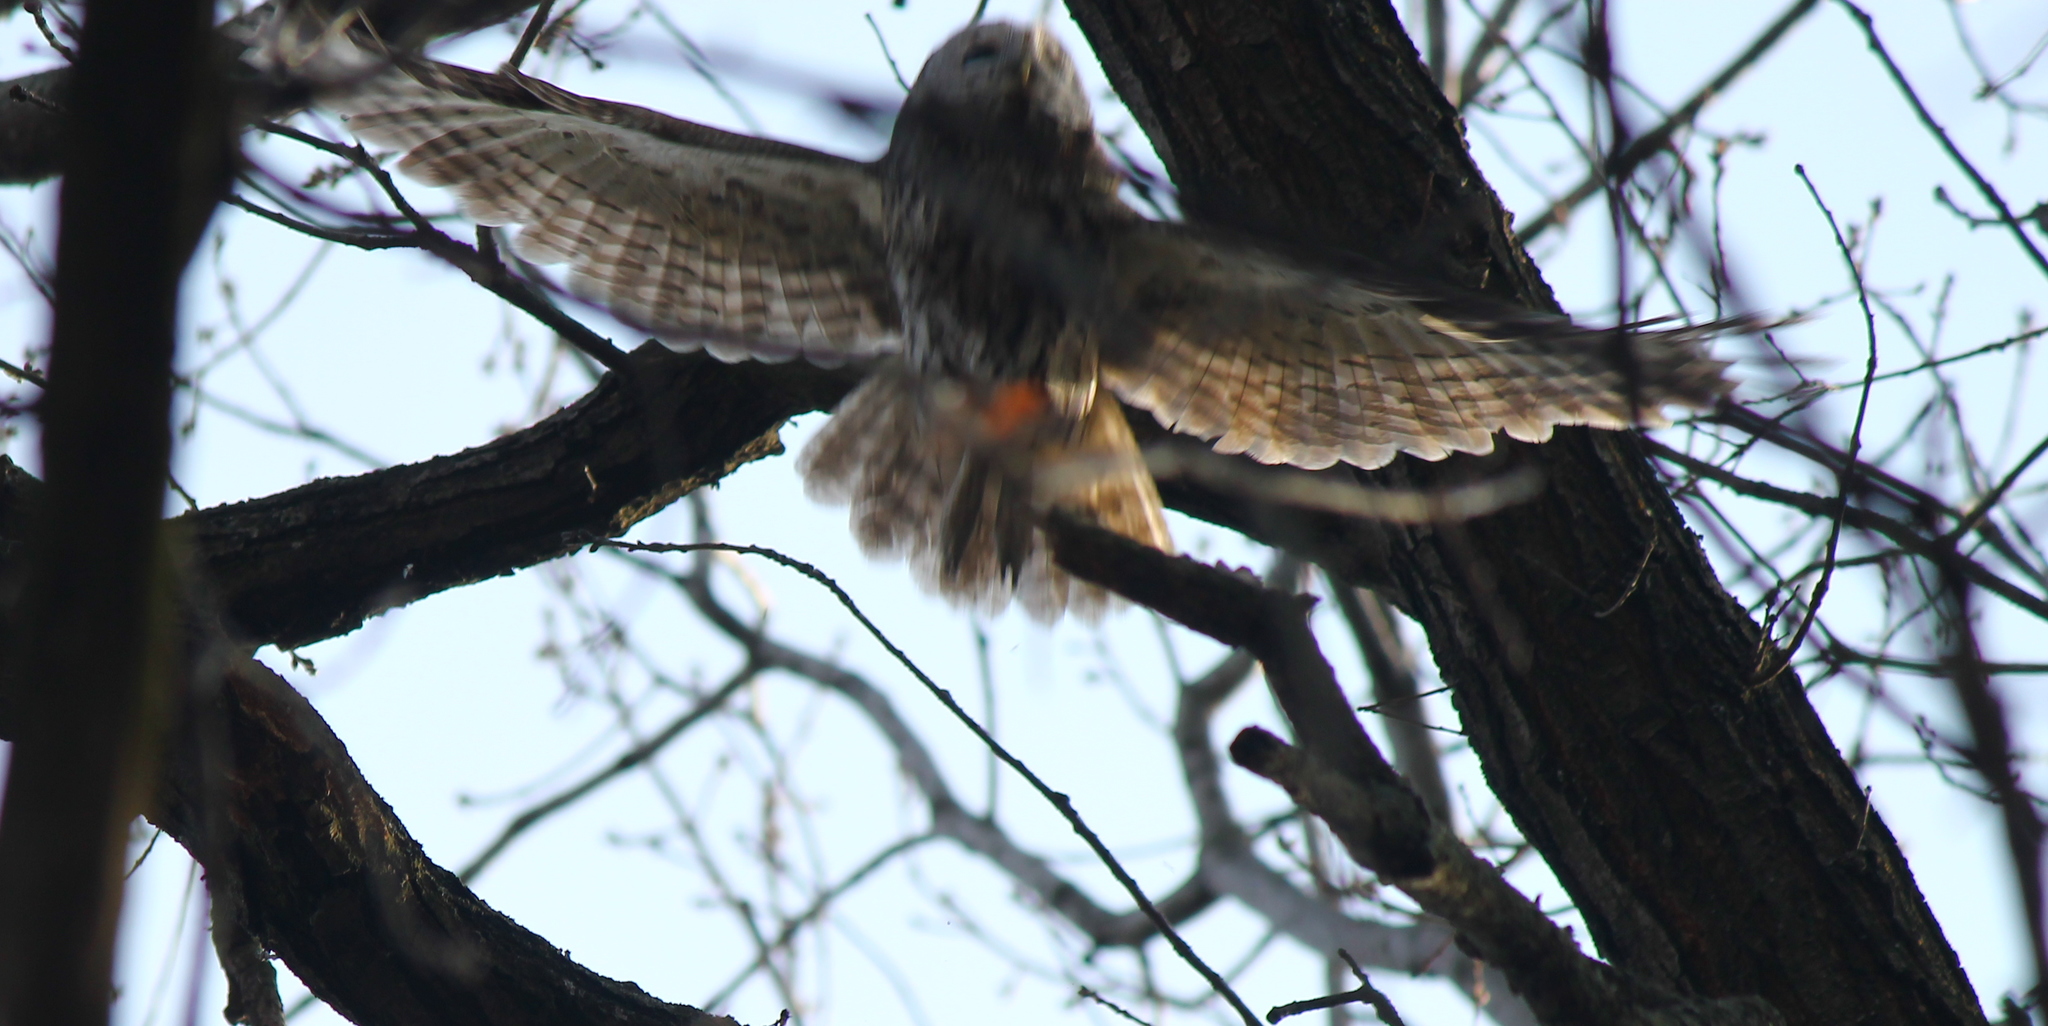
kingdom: Animalia
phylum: Chordata
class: Aves
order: Strigiformes
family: Strigidae
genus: Strix
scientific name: Strix aluco
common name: Tawny owl
